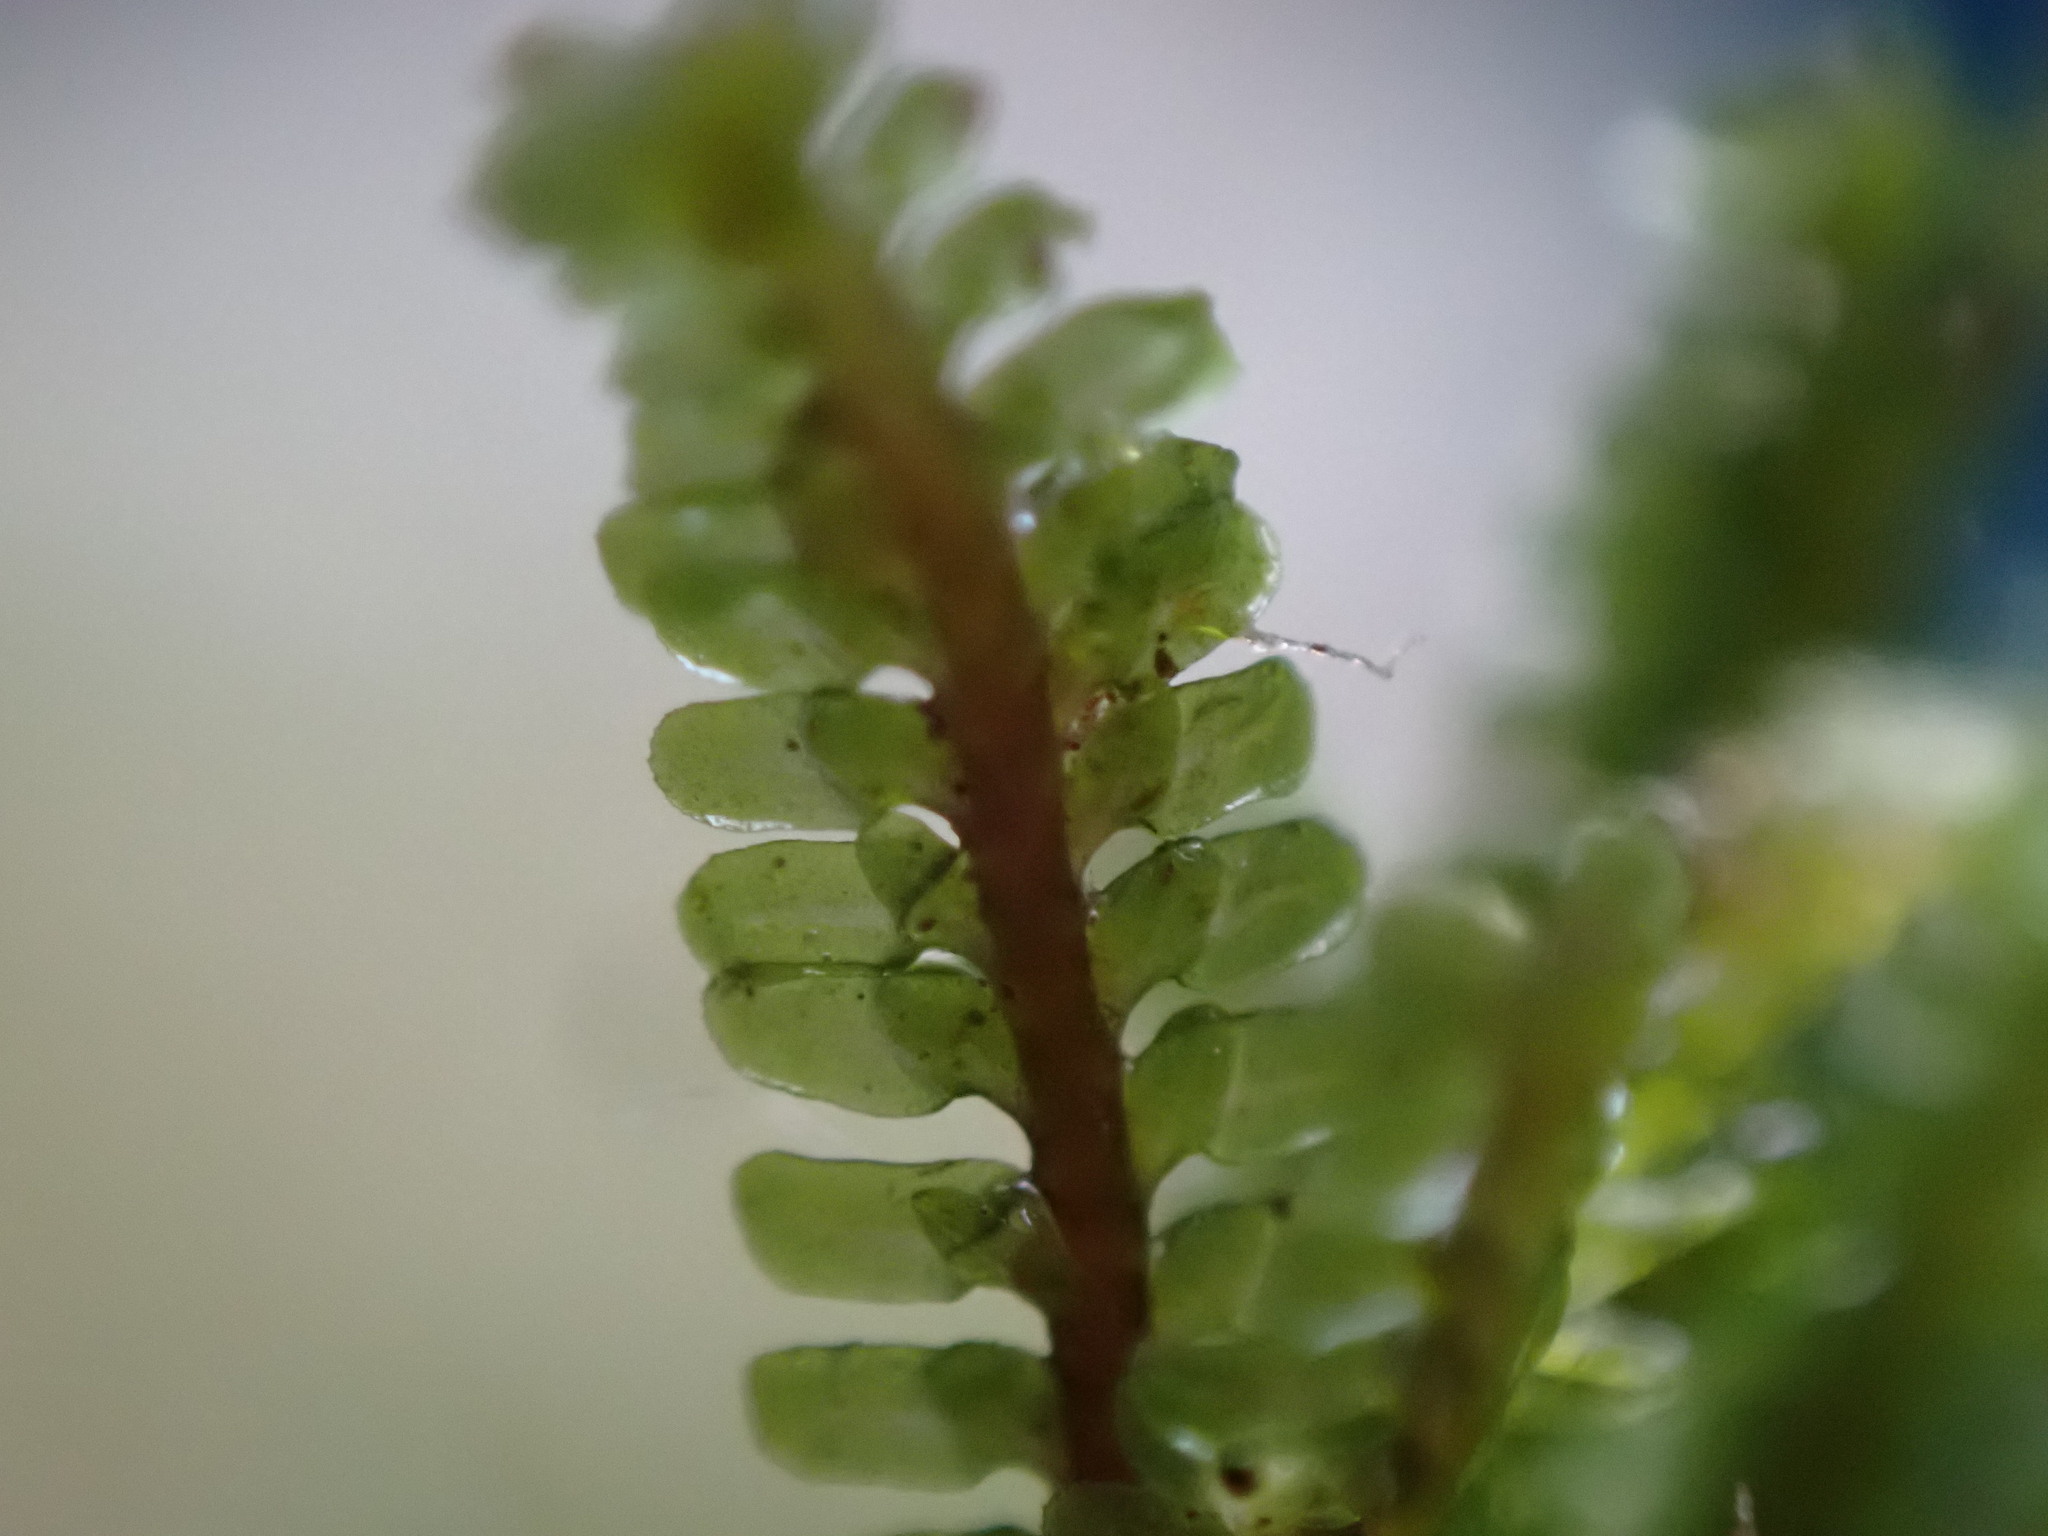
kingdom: Plantae
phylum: Marchantiophyta
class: Jungermanniopsida
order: Jungermanniales
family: Scapaniaceae
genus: Diplophyllum
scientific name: Diplophyllum albicans
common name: White earwort
